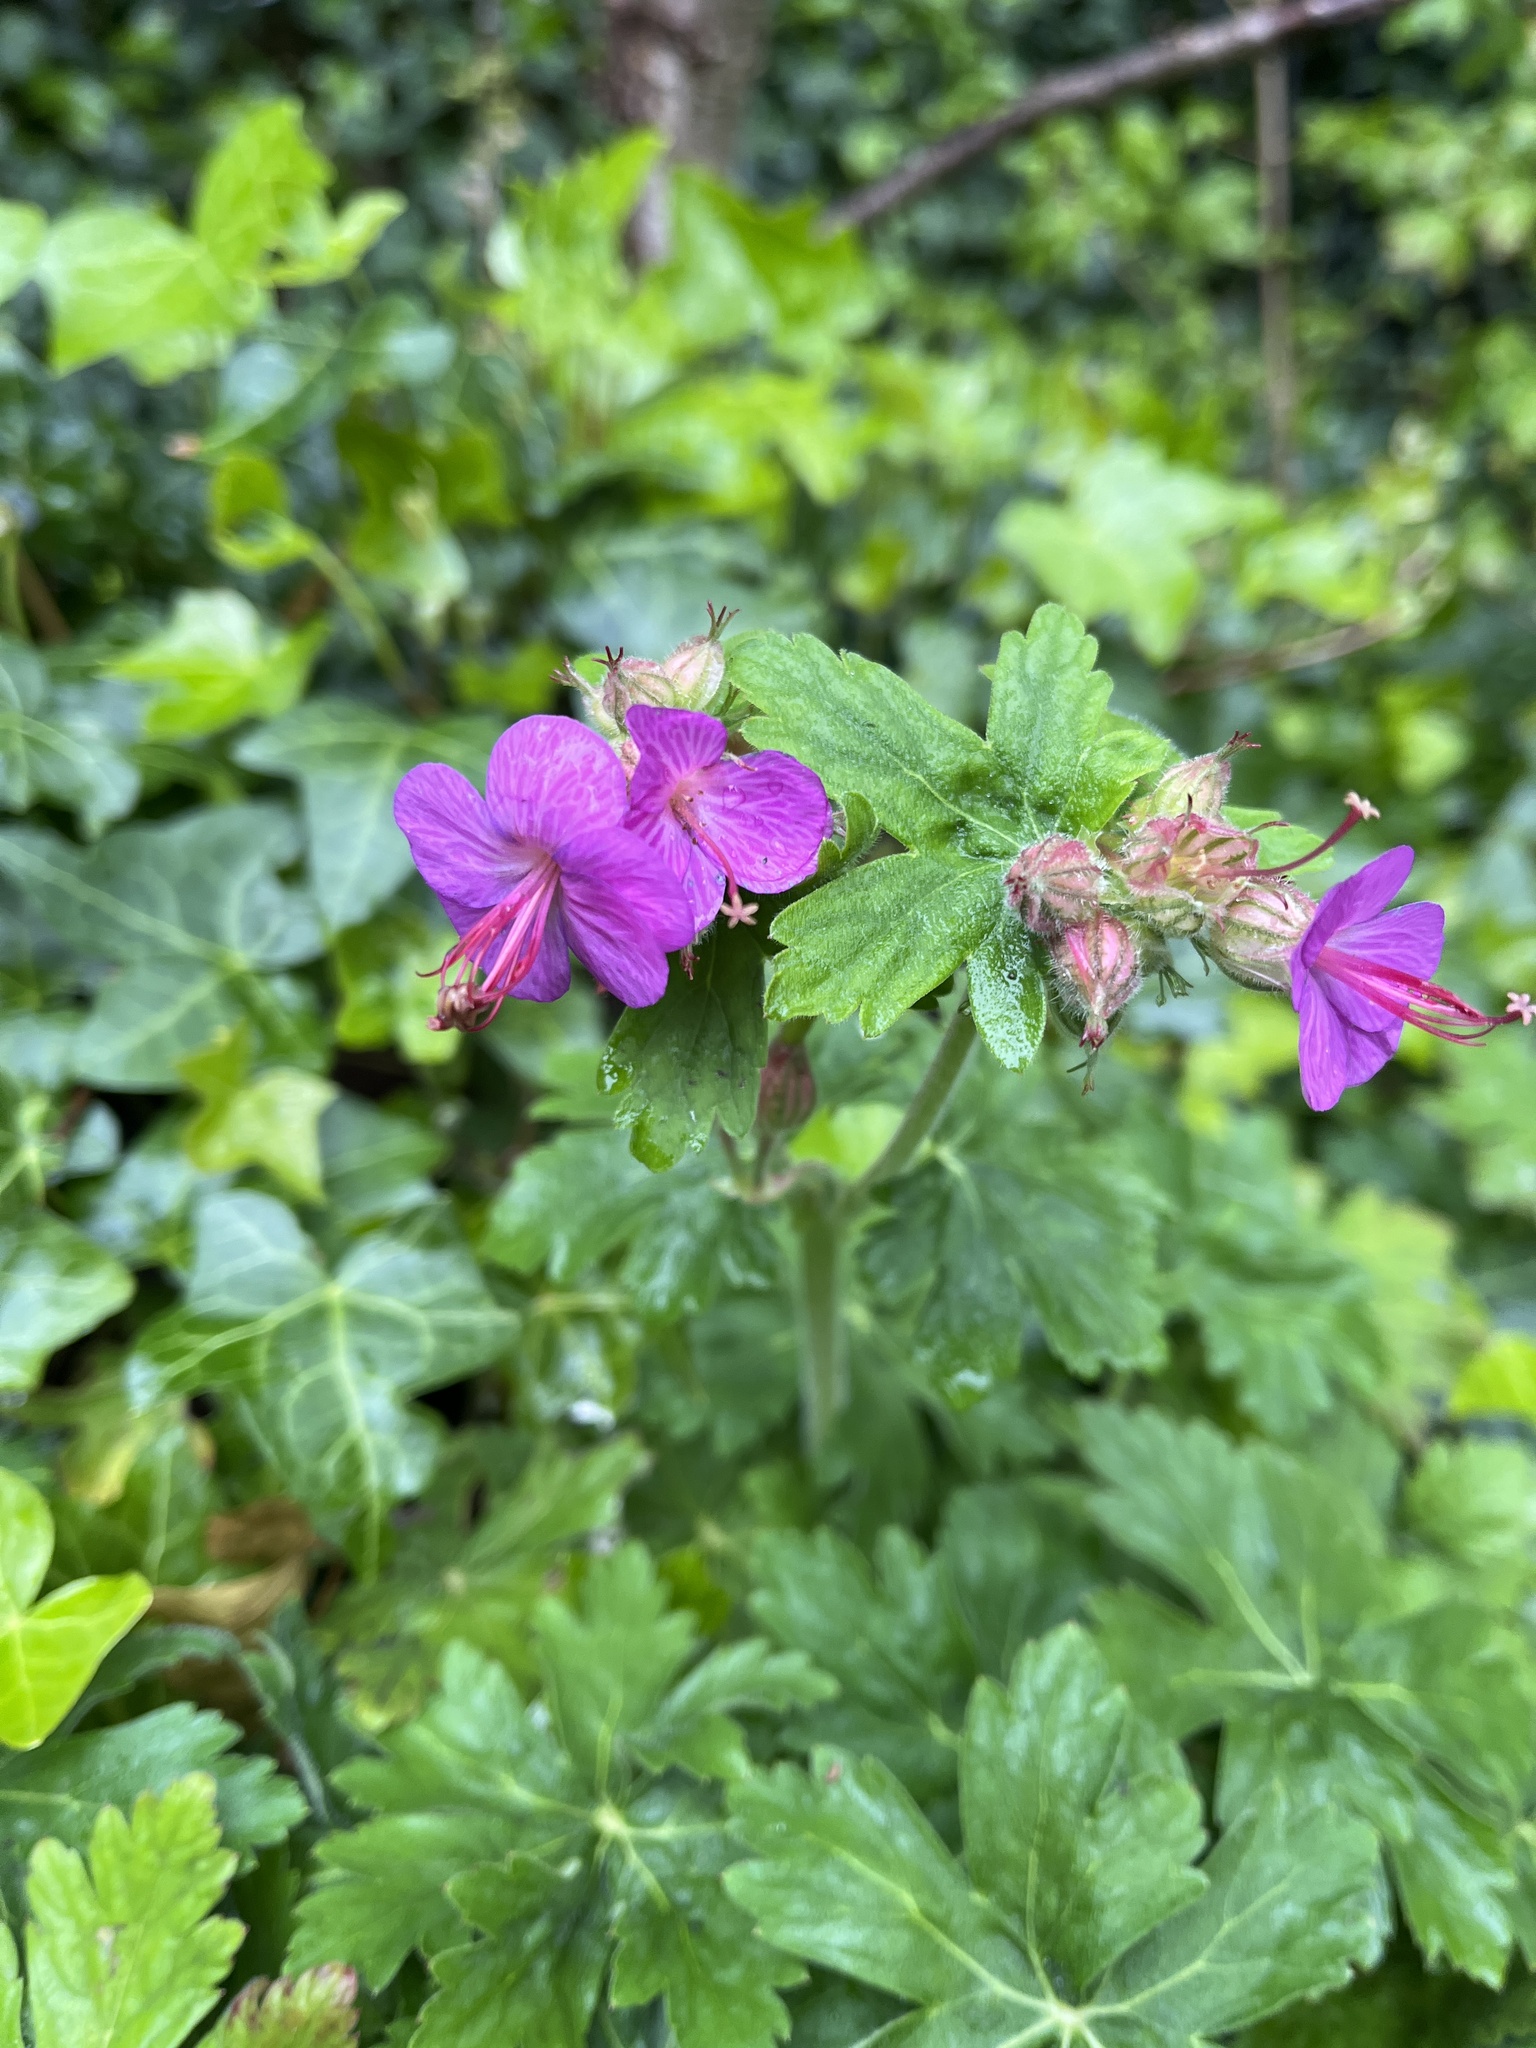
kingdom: Plantae
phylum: Tracheophyta
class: Magnoliopsida
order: Geraniales
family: Geraniaceae
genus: Geranium
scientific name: Geranium macrorrhizum
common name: Rock crane's-bill
